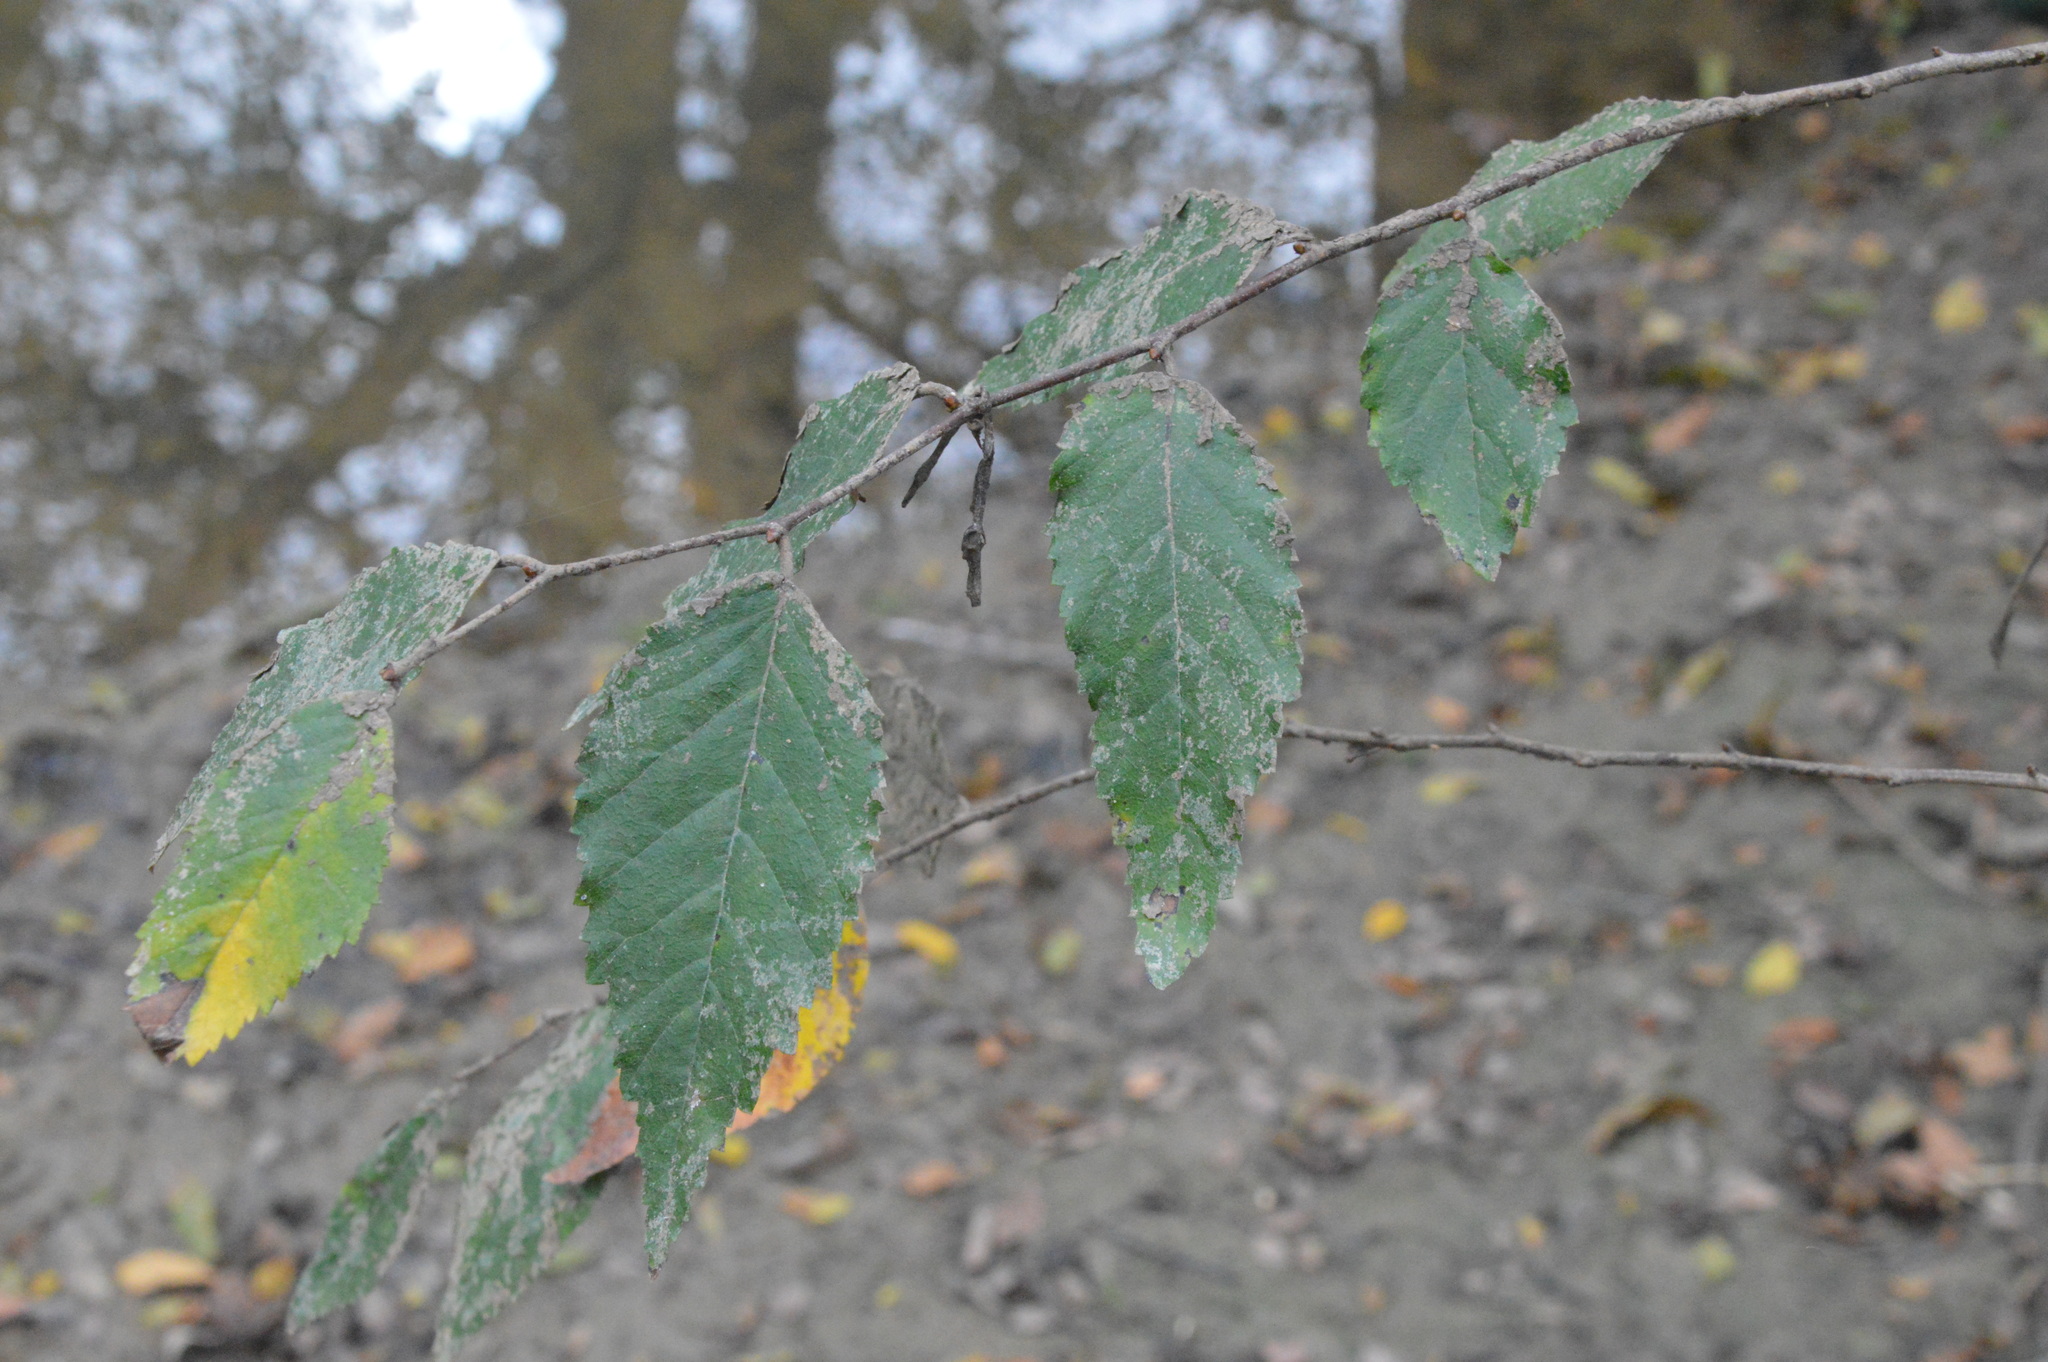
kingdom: Plantae
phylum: Tracheophyta
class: Magnoliopsida
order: Rosales
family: Ulmaceae
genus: Planera
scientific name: Planera aquatica
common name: Water-elm
